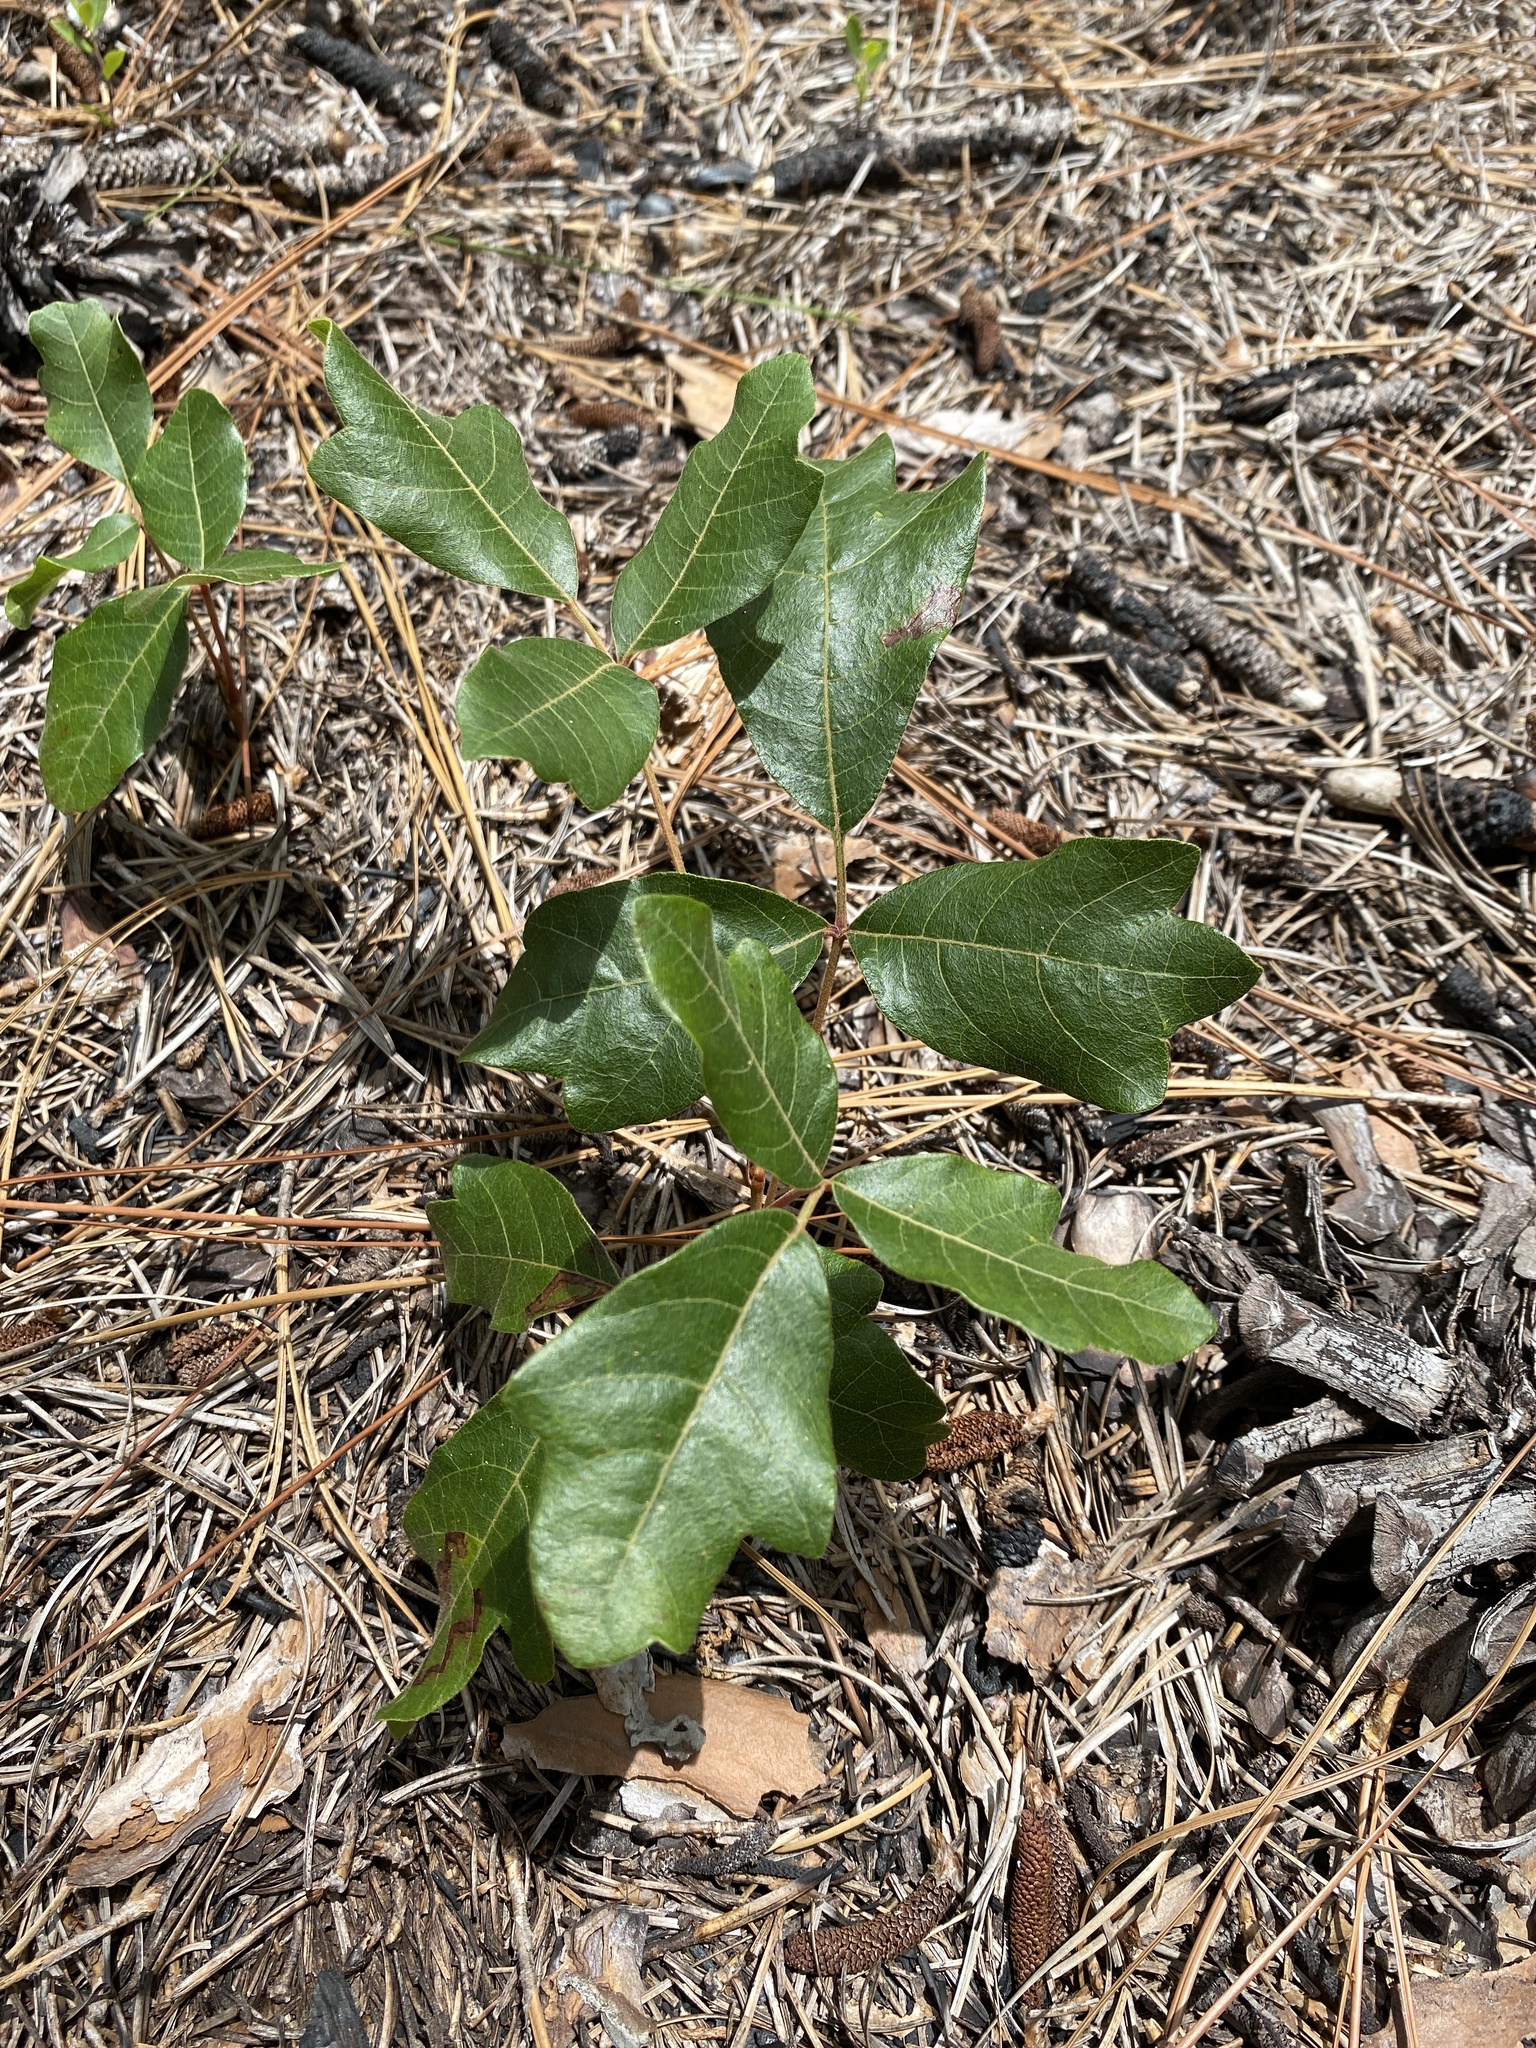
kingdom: Plantae
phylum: Tracheophyta
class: Magnoliopsida
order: Sapindales
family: Anacardiaceae
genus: Toxicodendron
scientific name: Toxicodendron pubescens
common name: Eastern poison-oak
